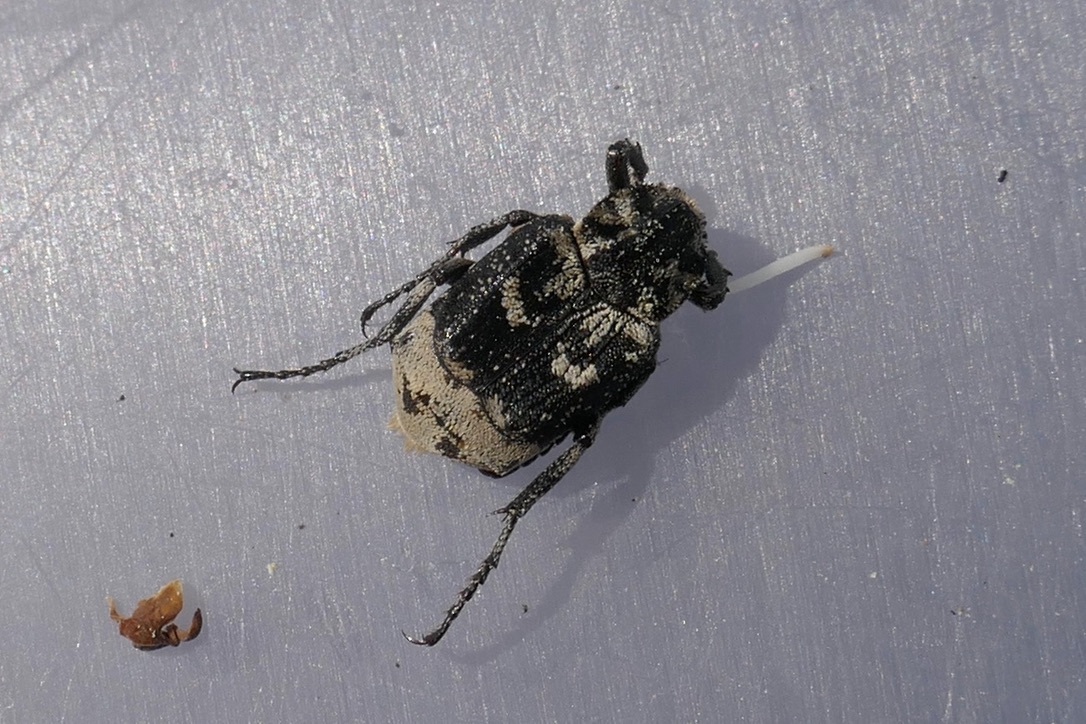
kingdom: Animalia
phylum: Arthropoda
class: Insecta
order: Coleoptera
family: Scarabaeidae
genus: Valgus
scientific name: Valgus hemipterus
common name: Bug flower chafer
